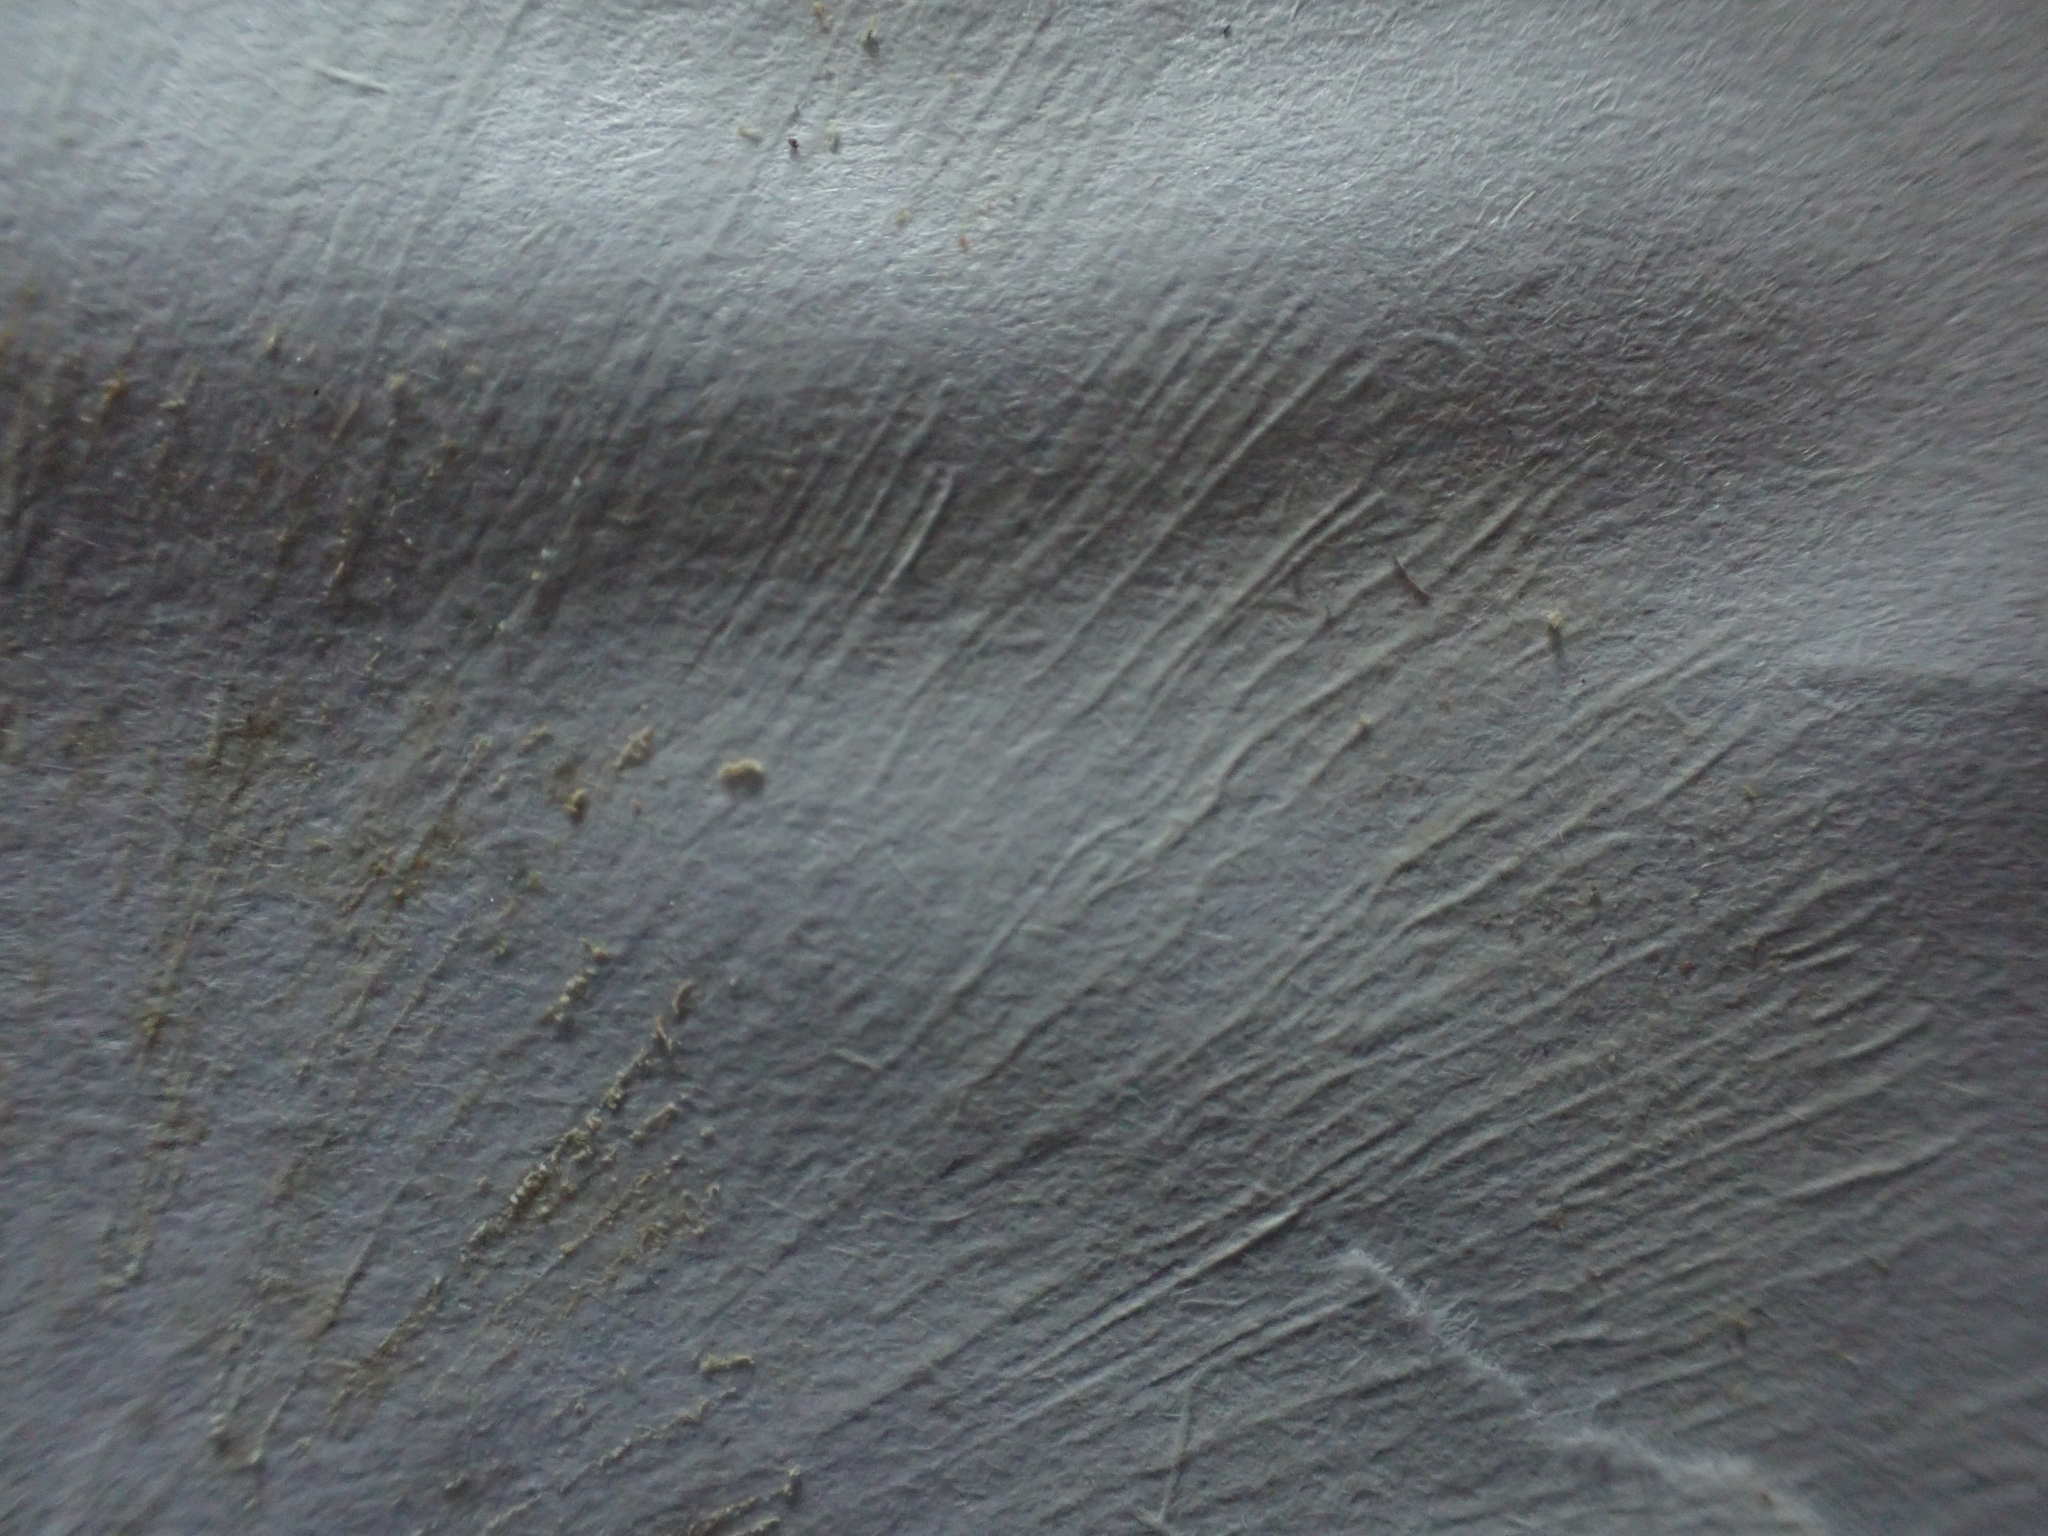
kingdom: Fungi
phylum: Basidiomycota
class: Agaricomycetes
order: Agaricales
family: Amanitaceae
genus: Amanita
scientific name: Amanita muscaria
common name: Fly agaric
